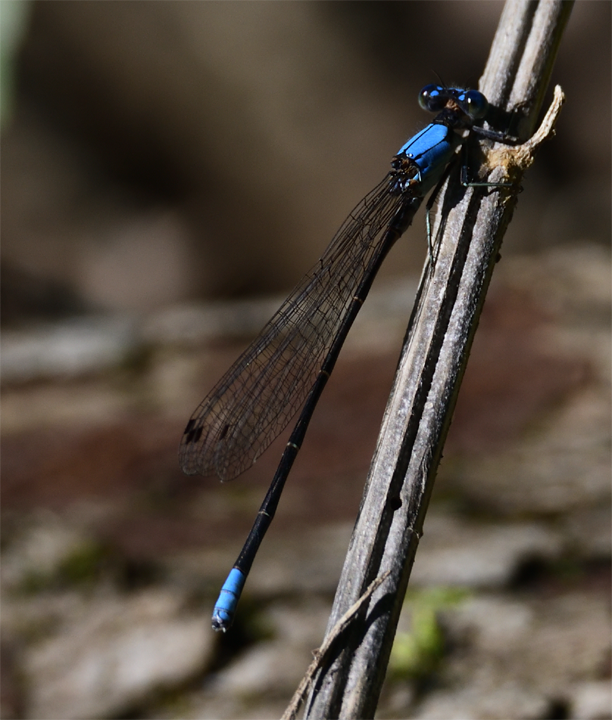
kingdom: Animalia
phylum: Arthropoda
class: Insecta
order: Odonata
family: Coenagrionidae
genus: Argia
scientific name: Argia apicalis
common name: Blue-fronted dancer
